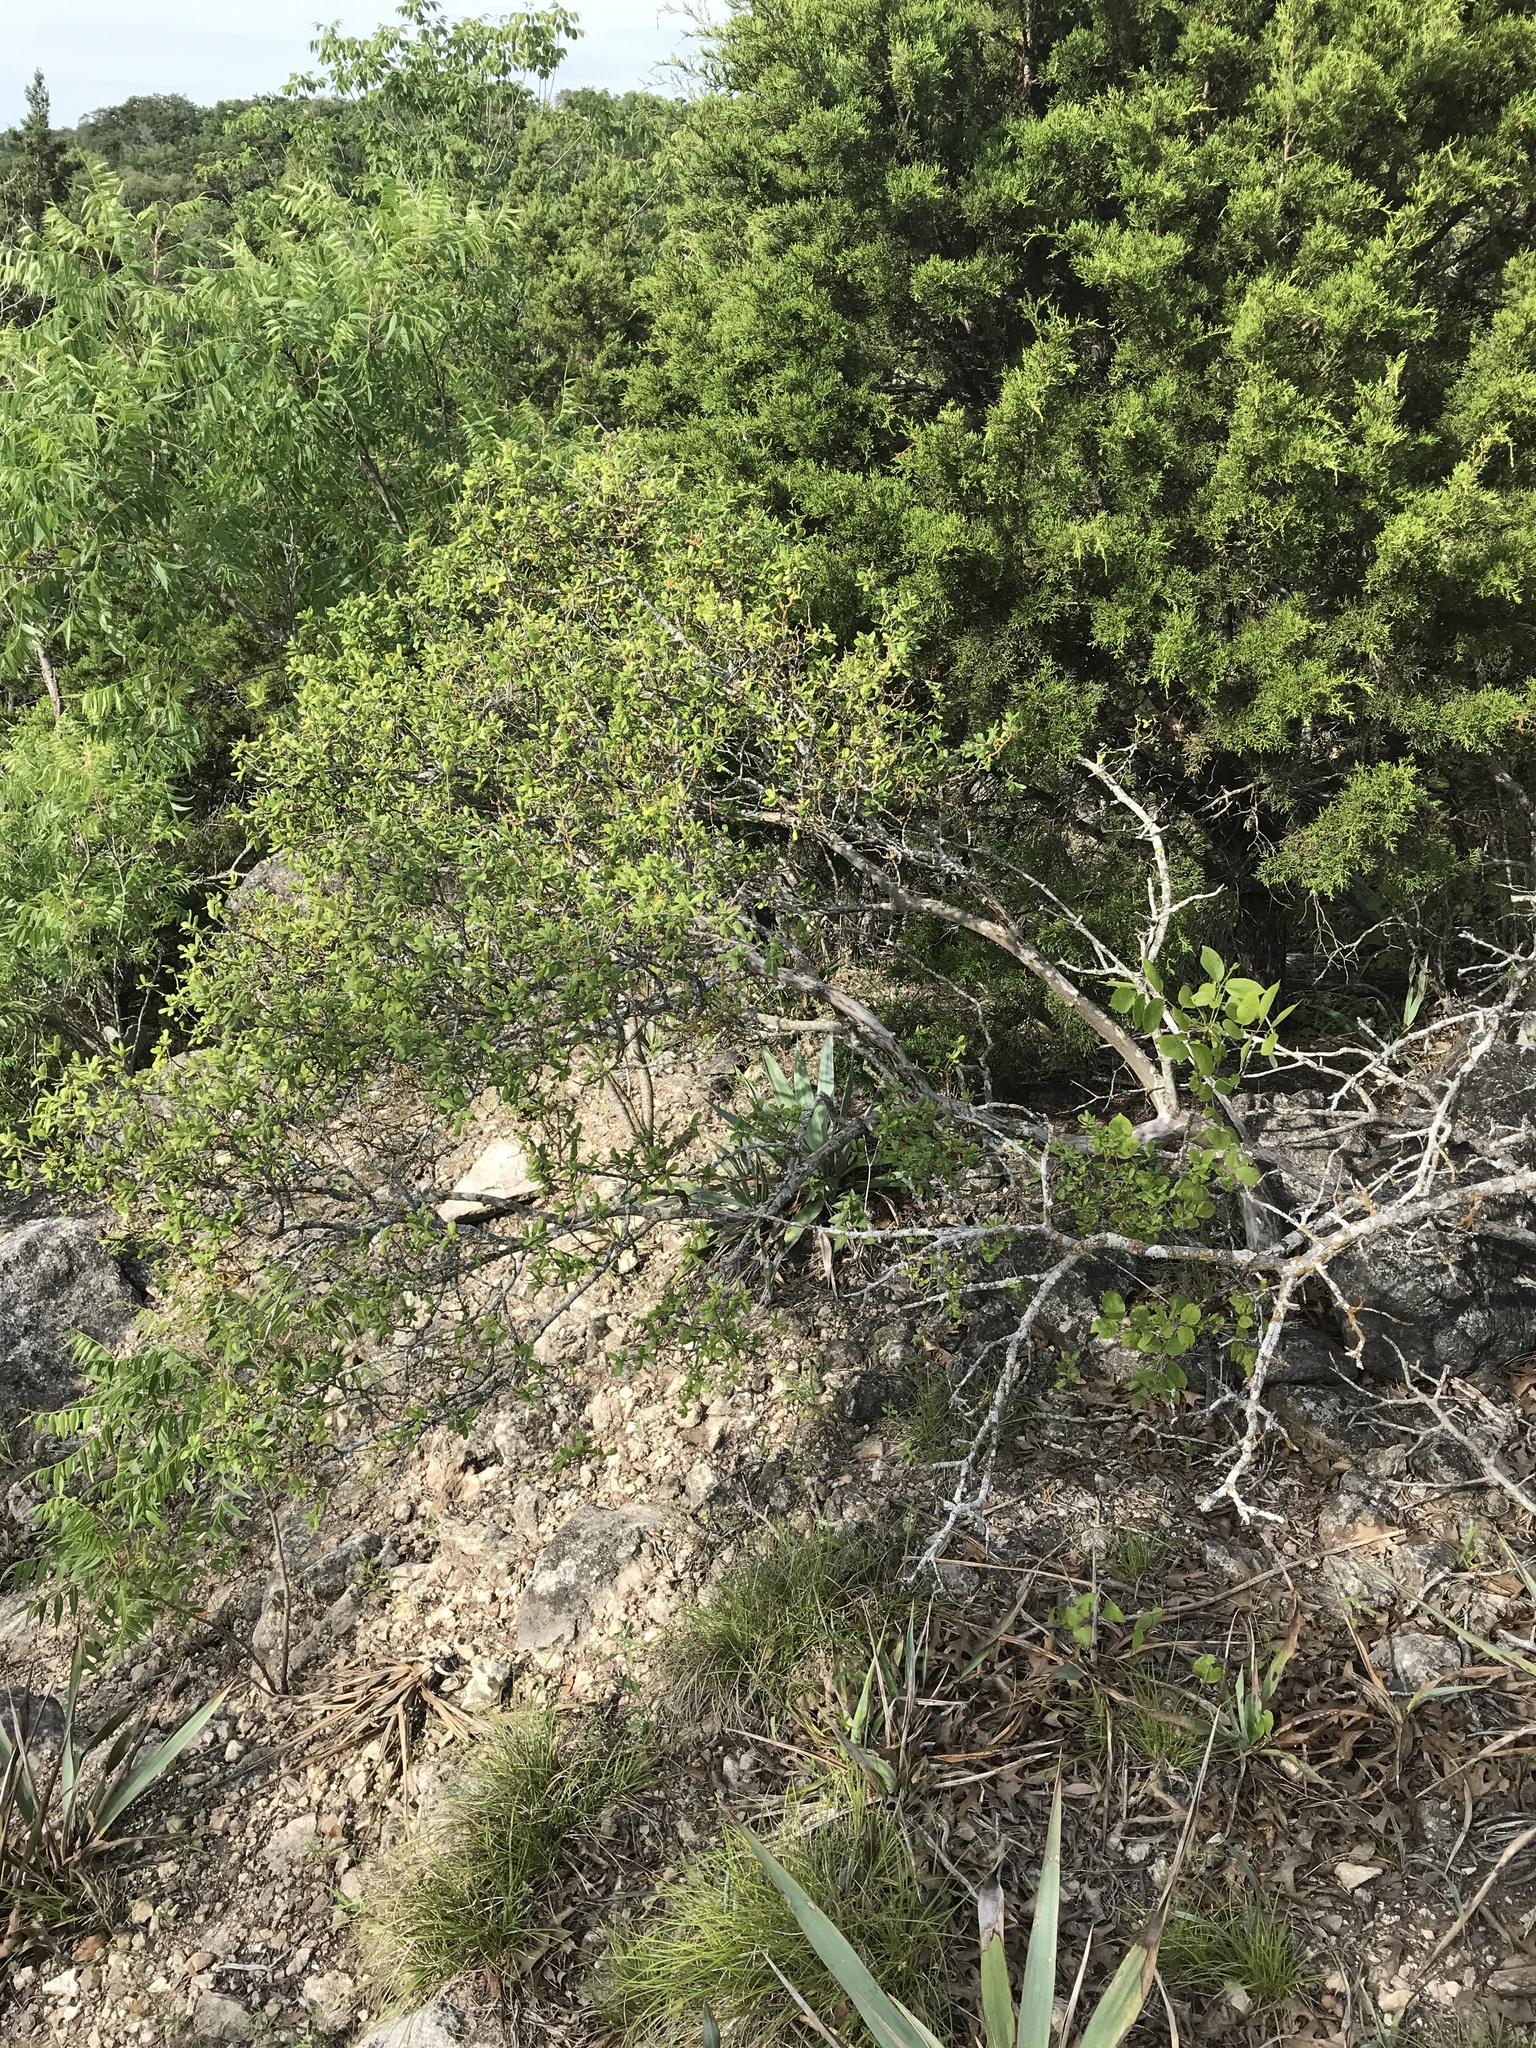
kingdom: Plantae
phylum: Tracheophyta
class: Magnoliopsida
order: Ericales
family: Ebenaceae
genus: Diospyros
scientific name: Diospyros texana
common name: Texas persimmon
